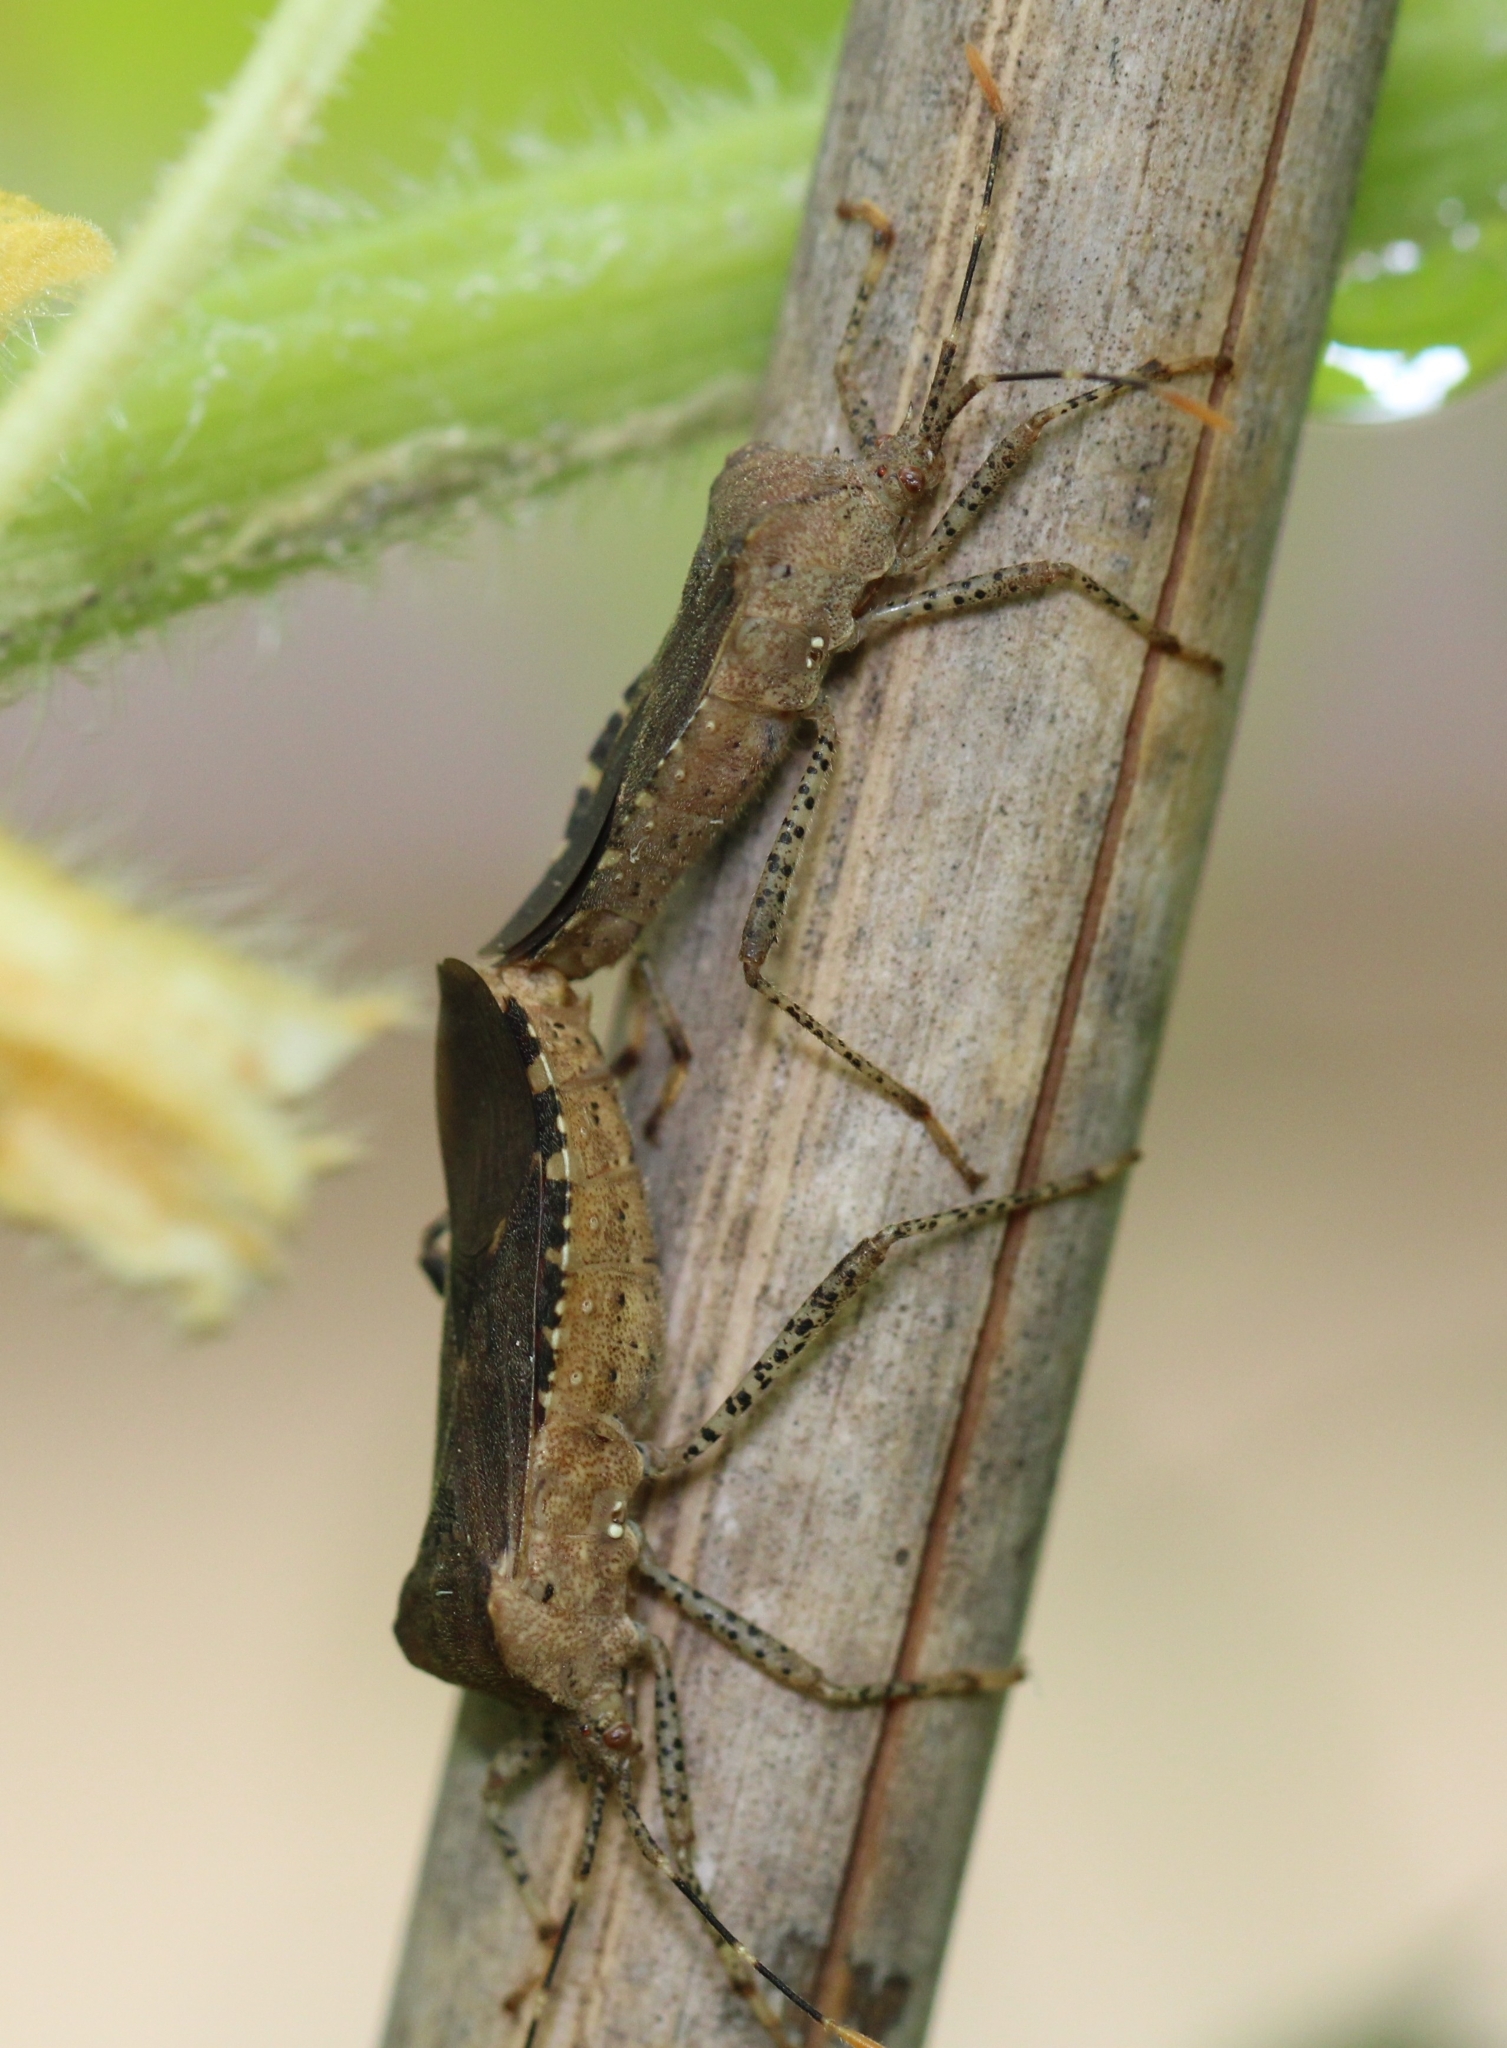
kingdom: Animalia
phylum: Arthropoda
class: Insecta
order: Hemiptera
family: Coreidae
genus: Anasa
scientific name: Anasa armigera
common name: Horned squash bug
